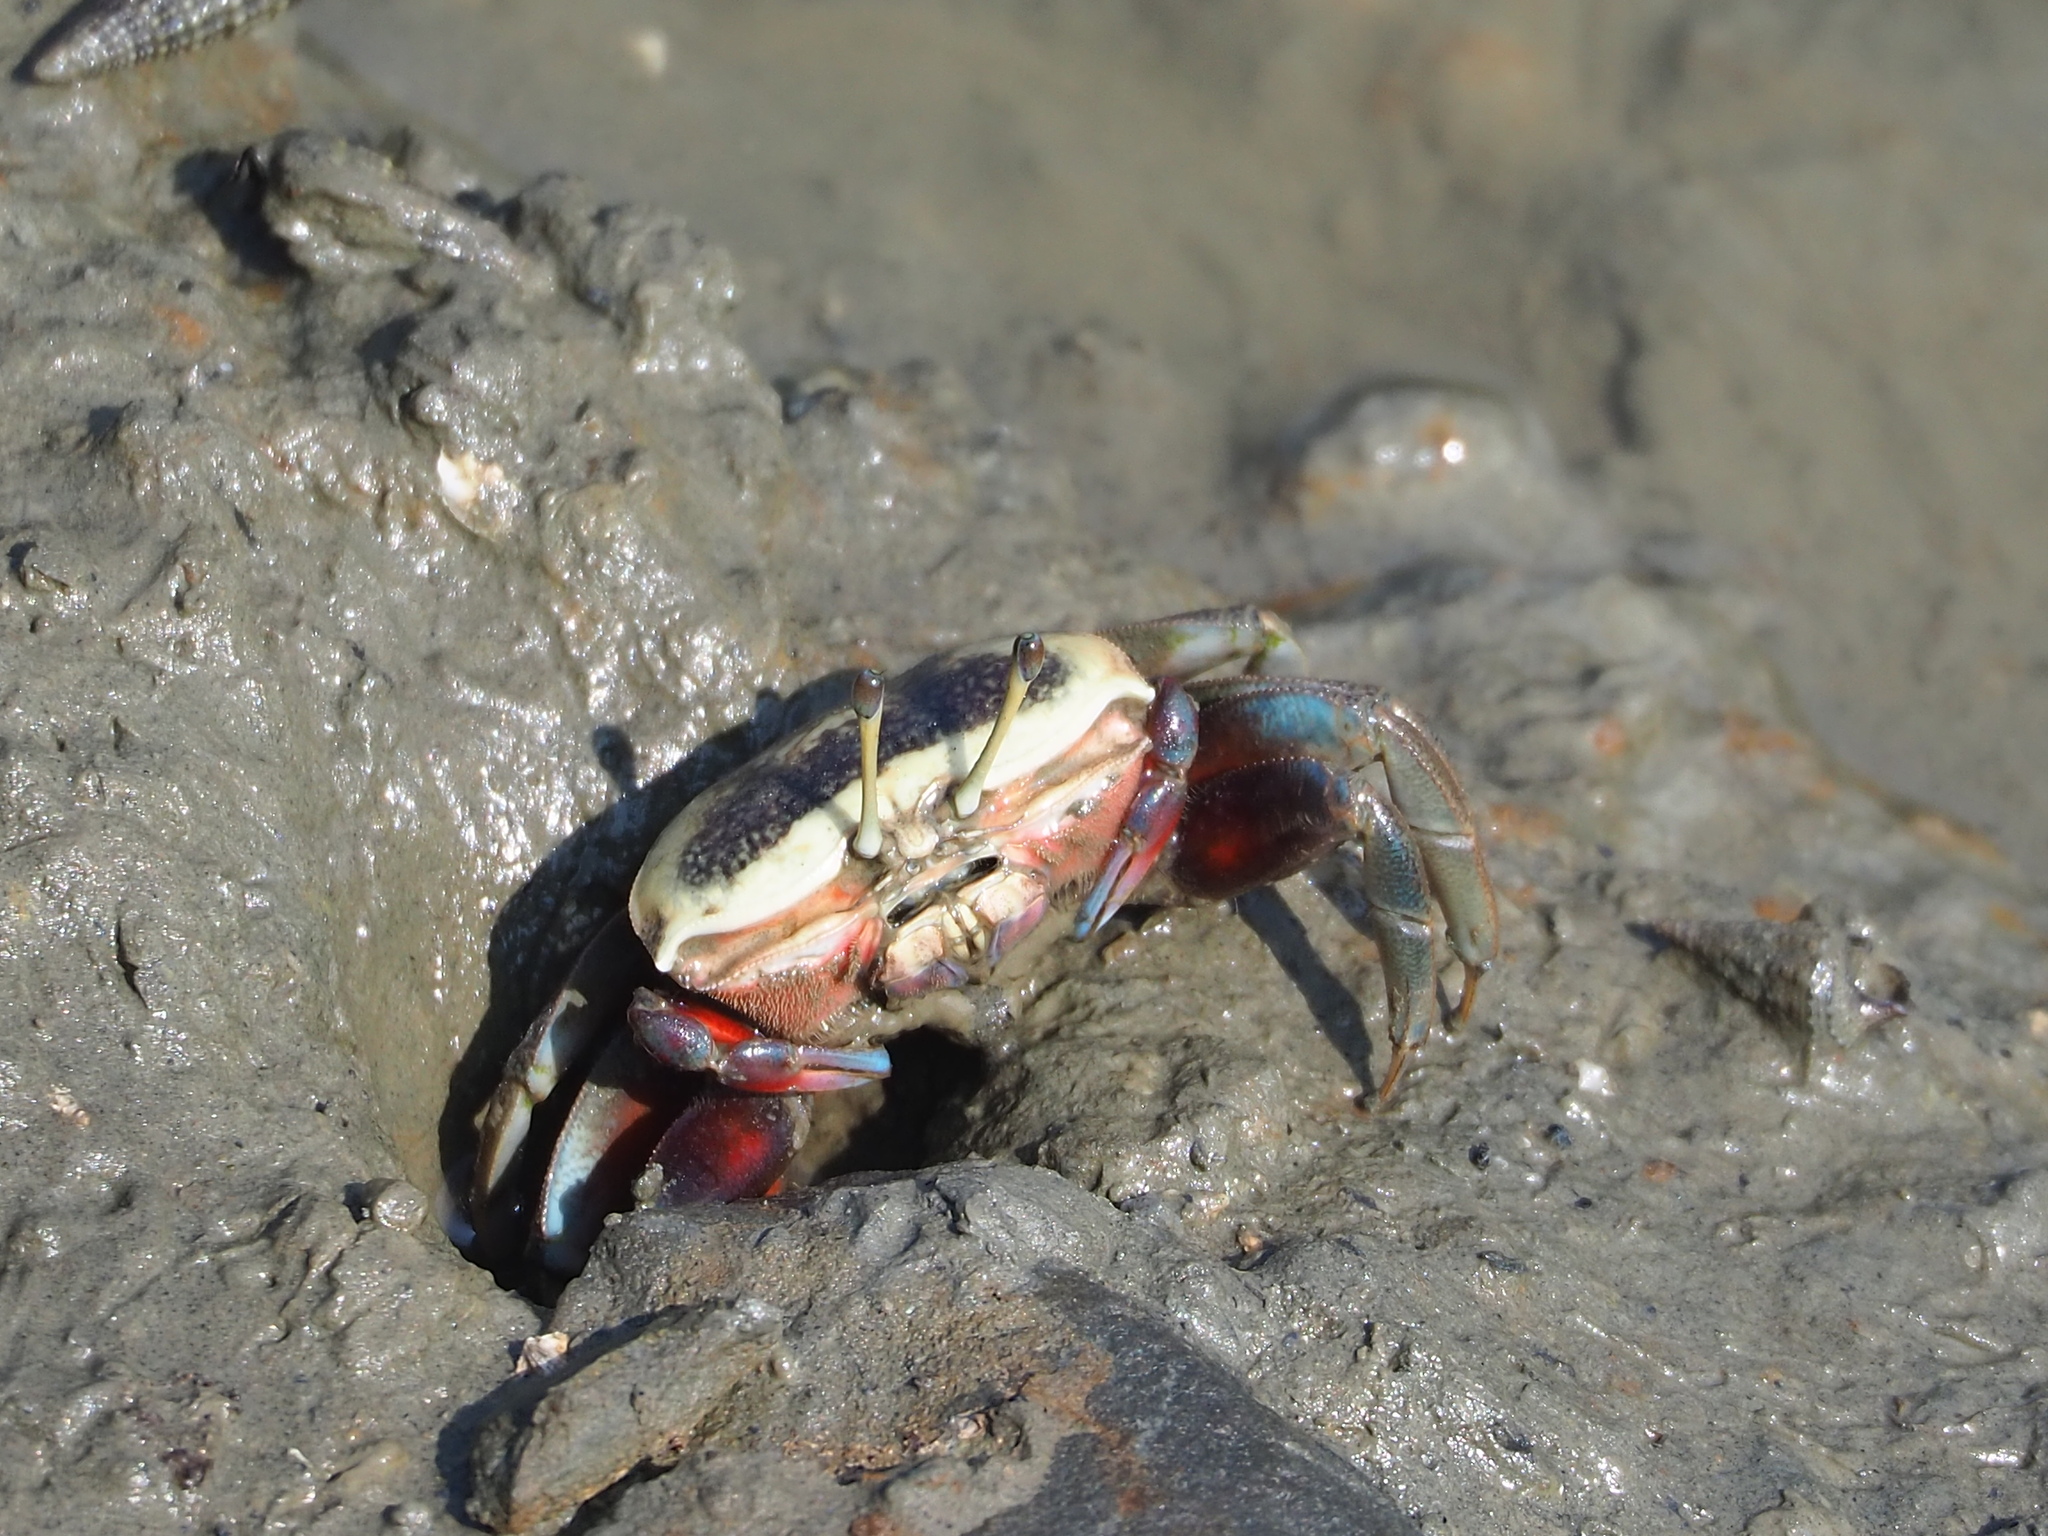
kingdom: Animalia
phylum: Arthropoda
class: Malacostraca
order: Decapoda
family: Ocypodidae
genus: Tubuca
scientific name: Tubuca arcuata
